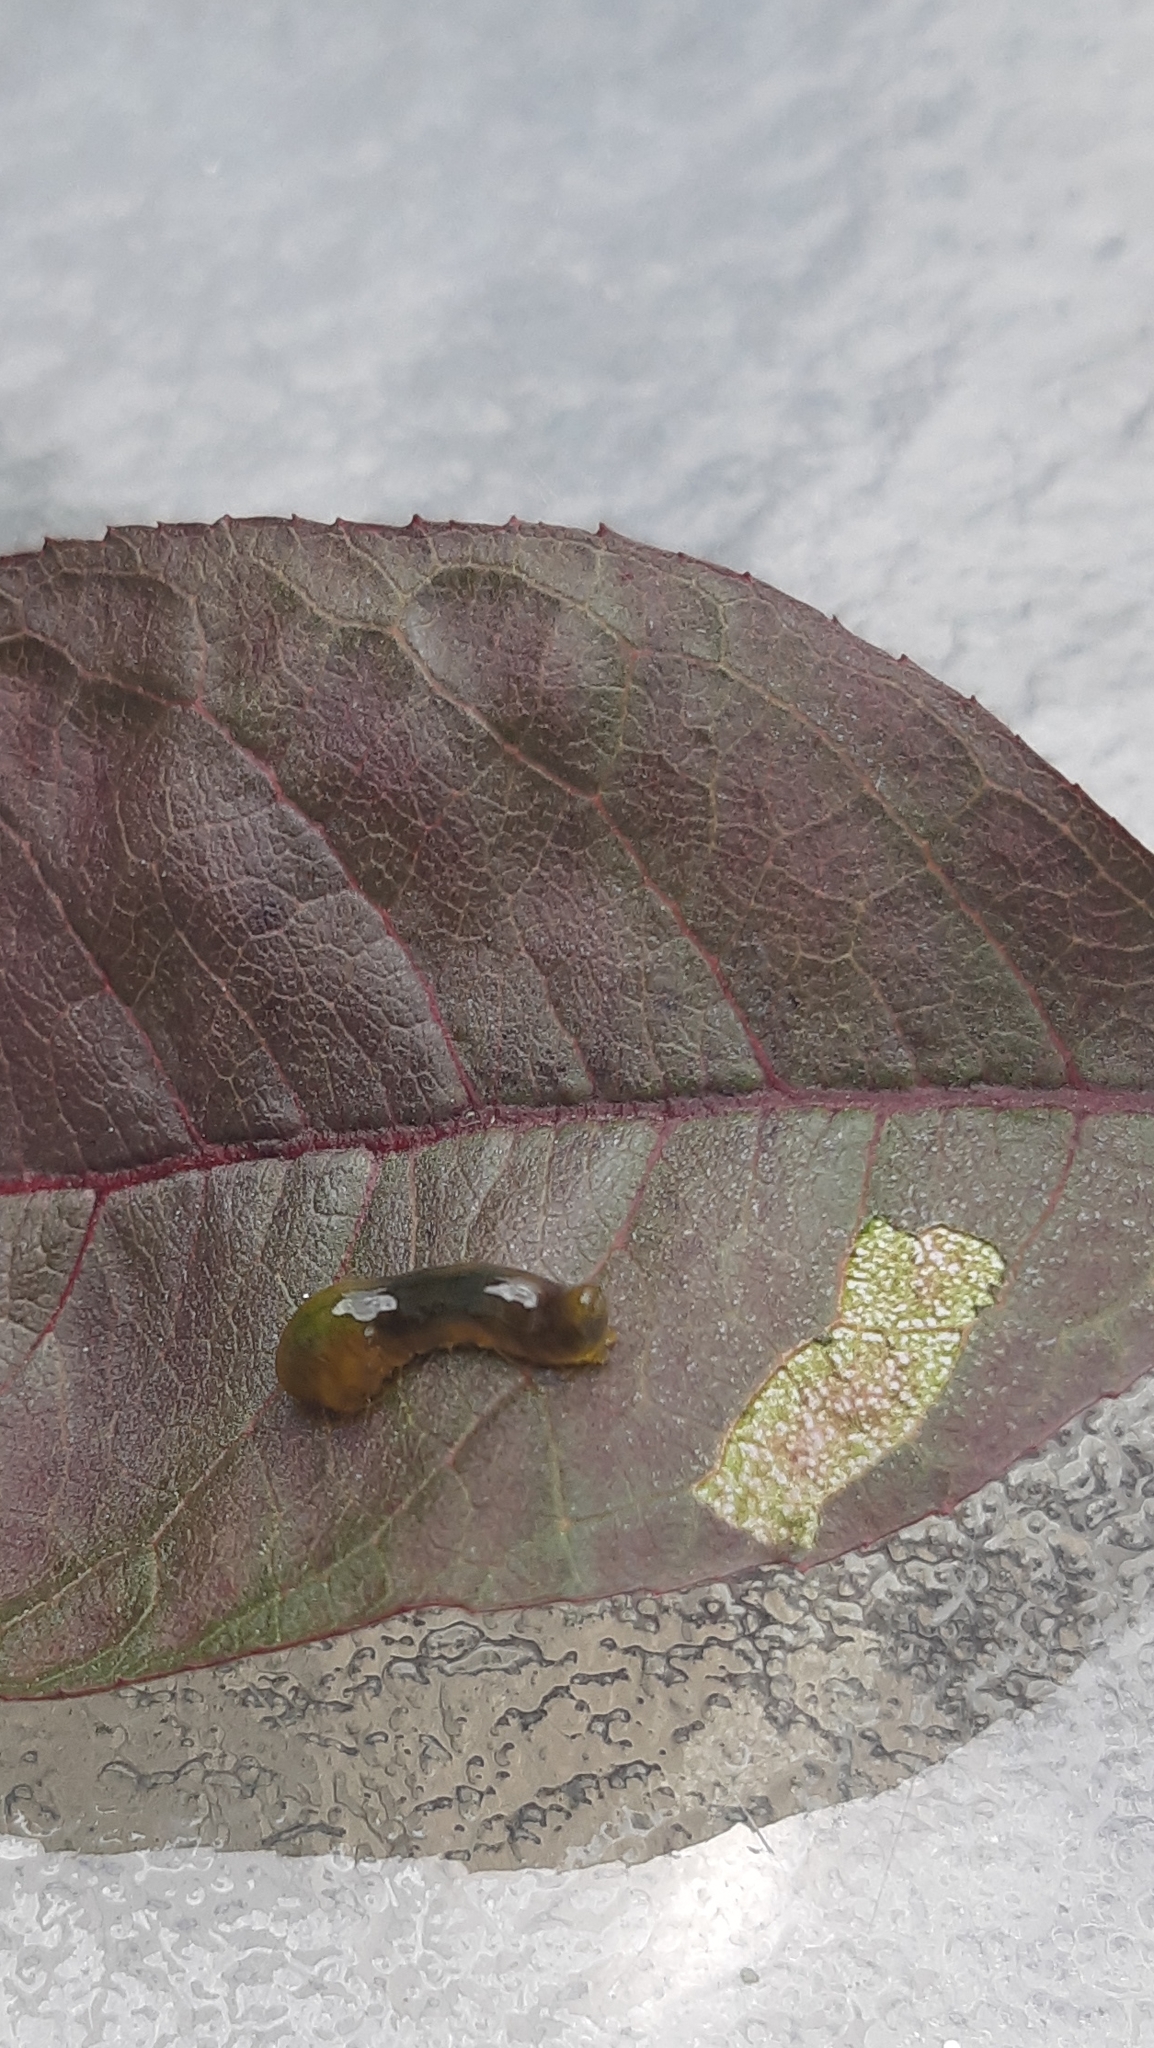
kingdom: Animalia
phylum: Arthropoda
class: Insecta
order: Hymenoptera
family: Tenthredinidae
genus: Caliroa
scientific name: Caliroa cerasi
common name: Pear sawfly
